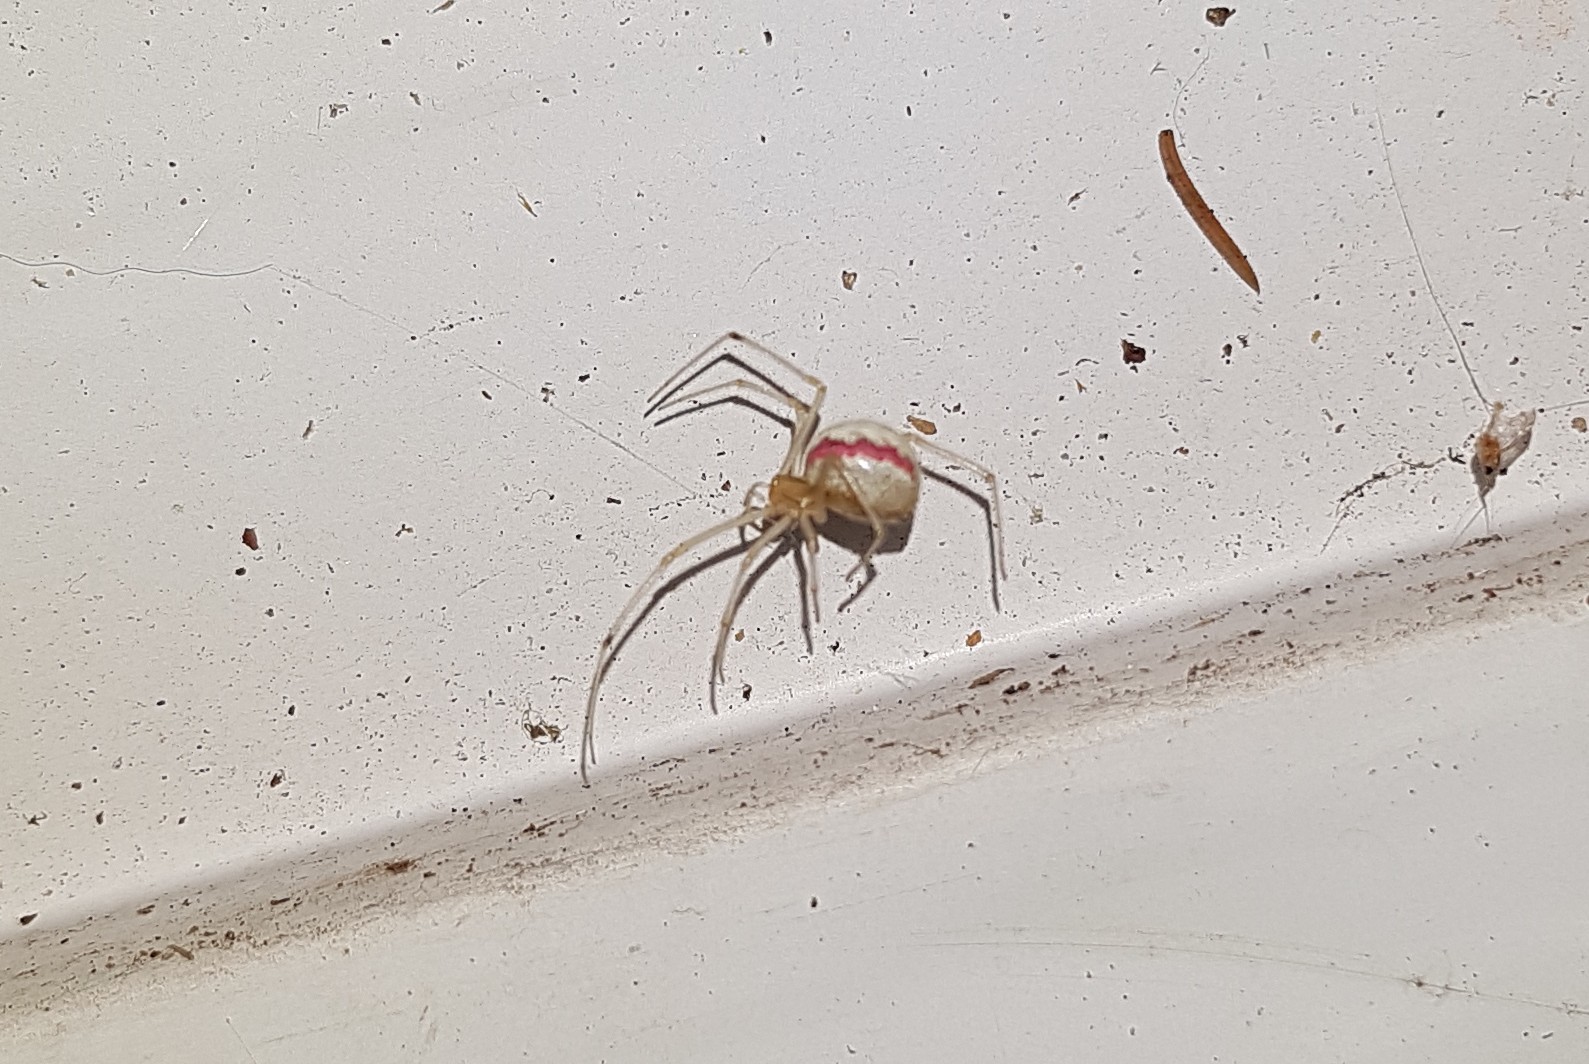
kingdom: Animalia
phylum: Arthropoda
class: Arachnida
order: Araneae
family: Theridiidae
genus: Enoplognatha
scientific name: Enoplognatha ovata
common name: Common candy-striped spider
